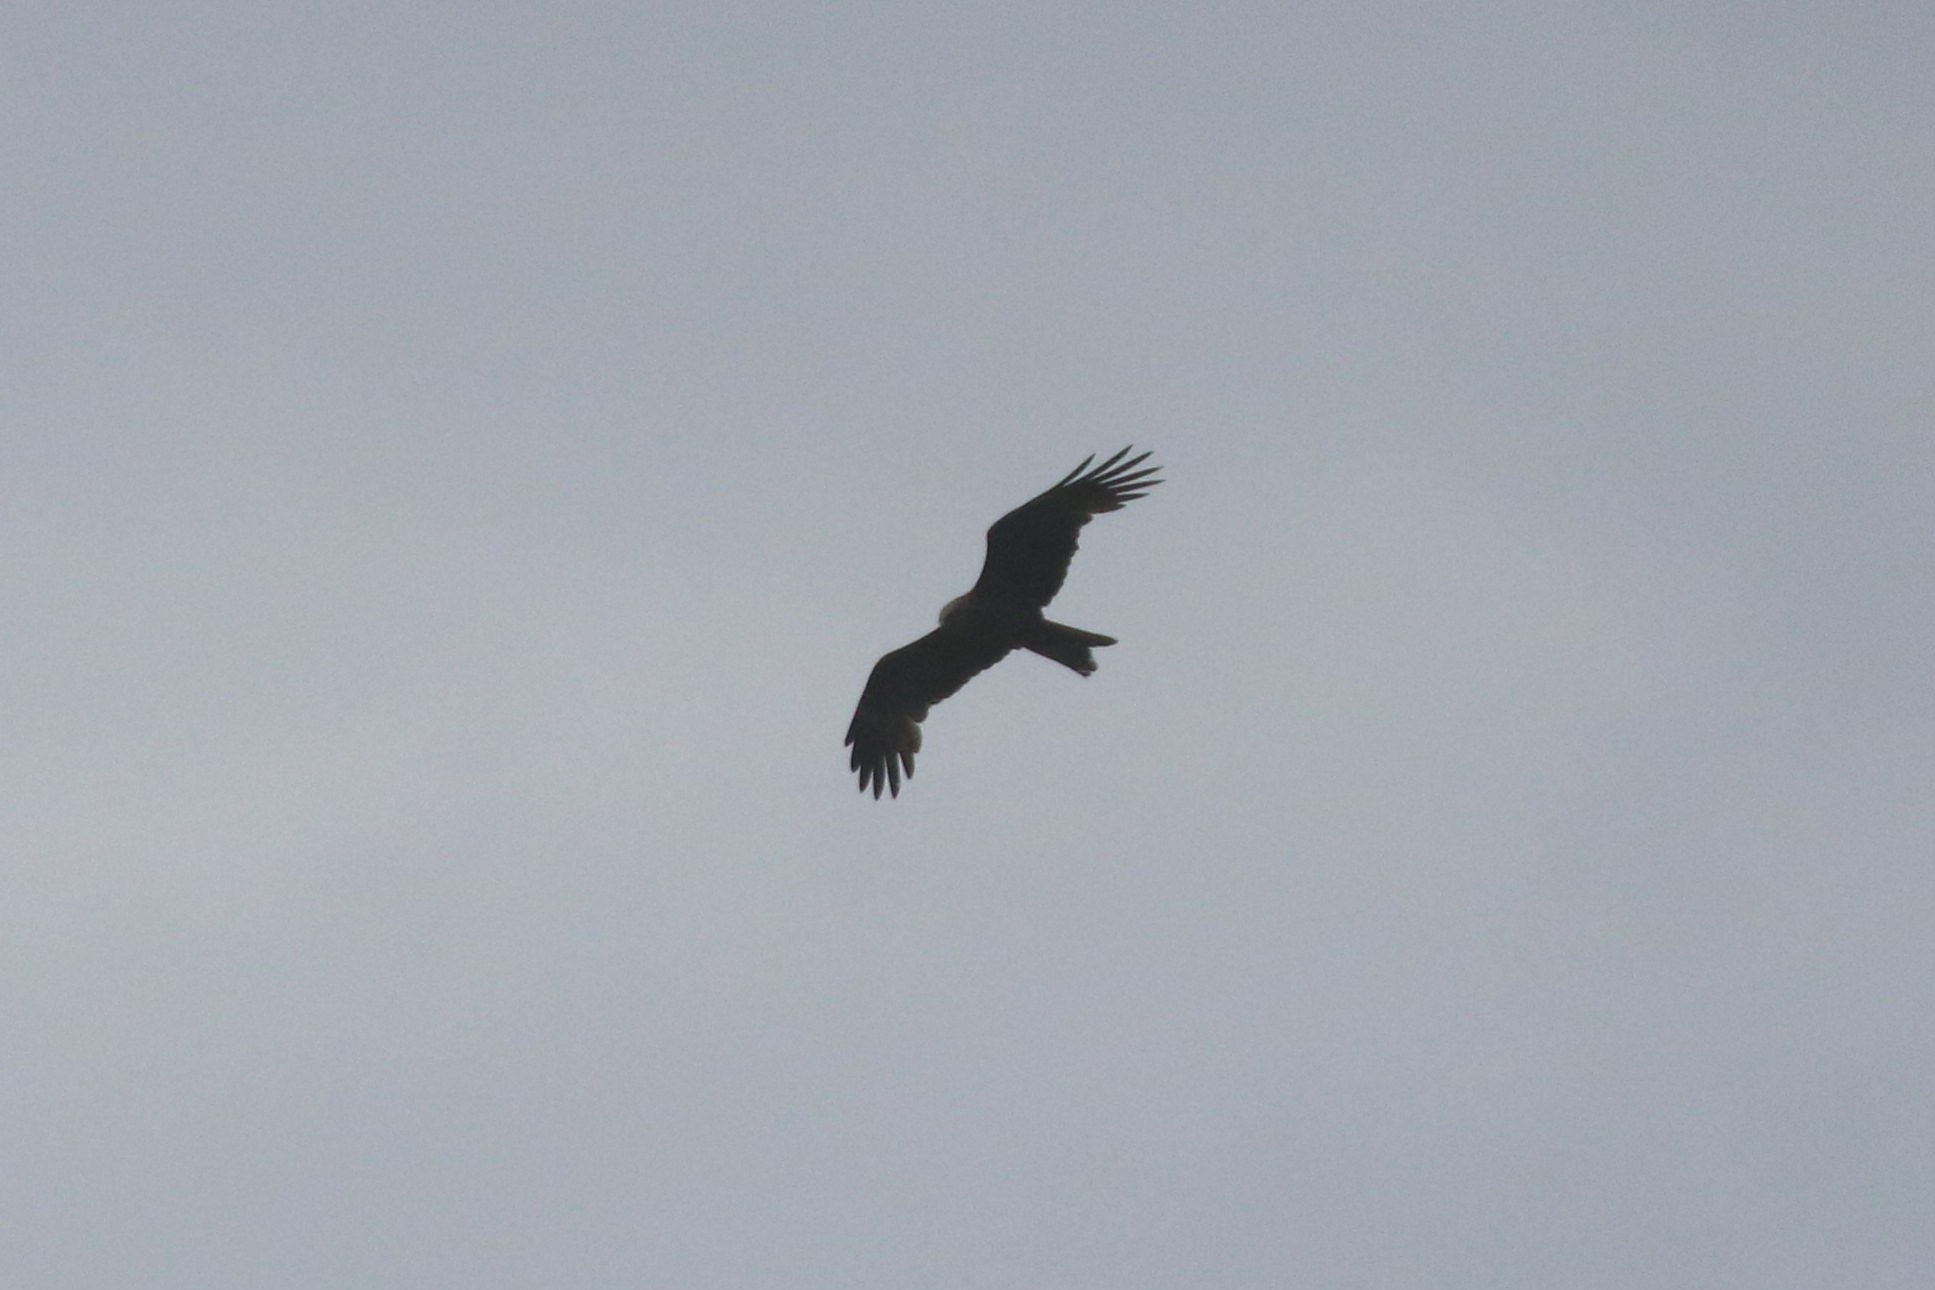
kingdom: Animalia
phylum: Chordata
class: Aves
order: Accipitriformes
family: Accipitridae
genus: Milvus
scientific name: Milvus migrans
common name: Black kite
